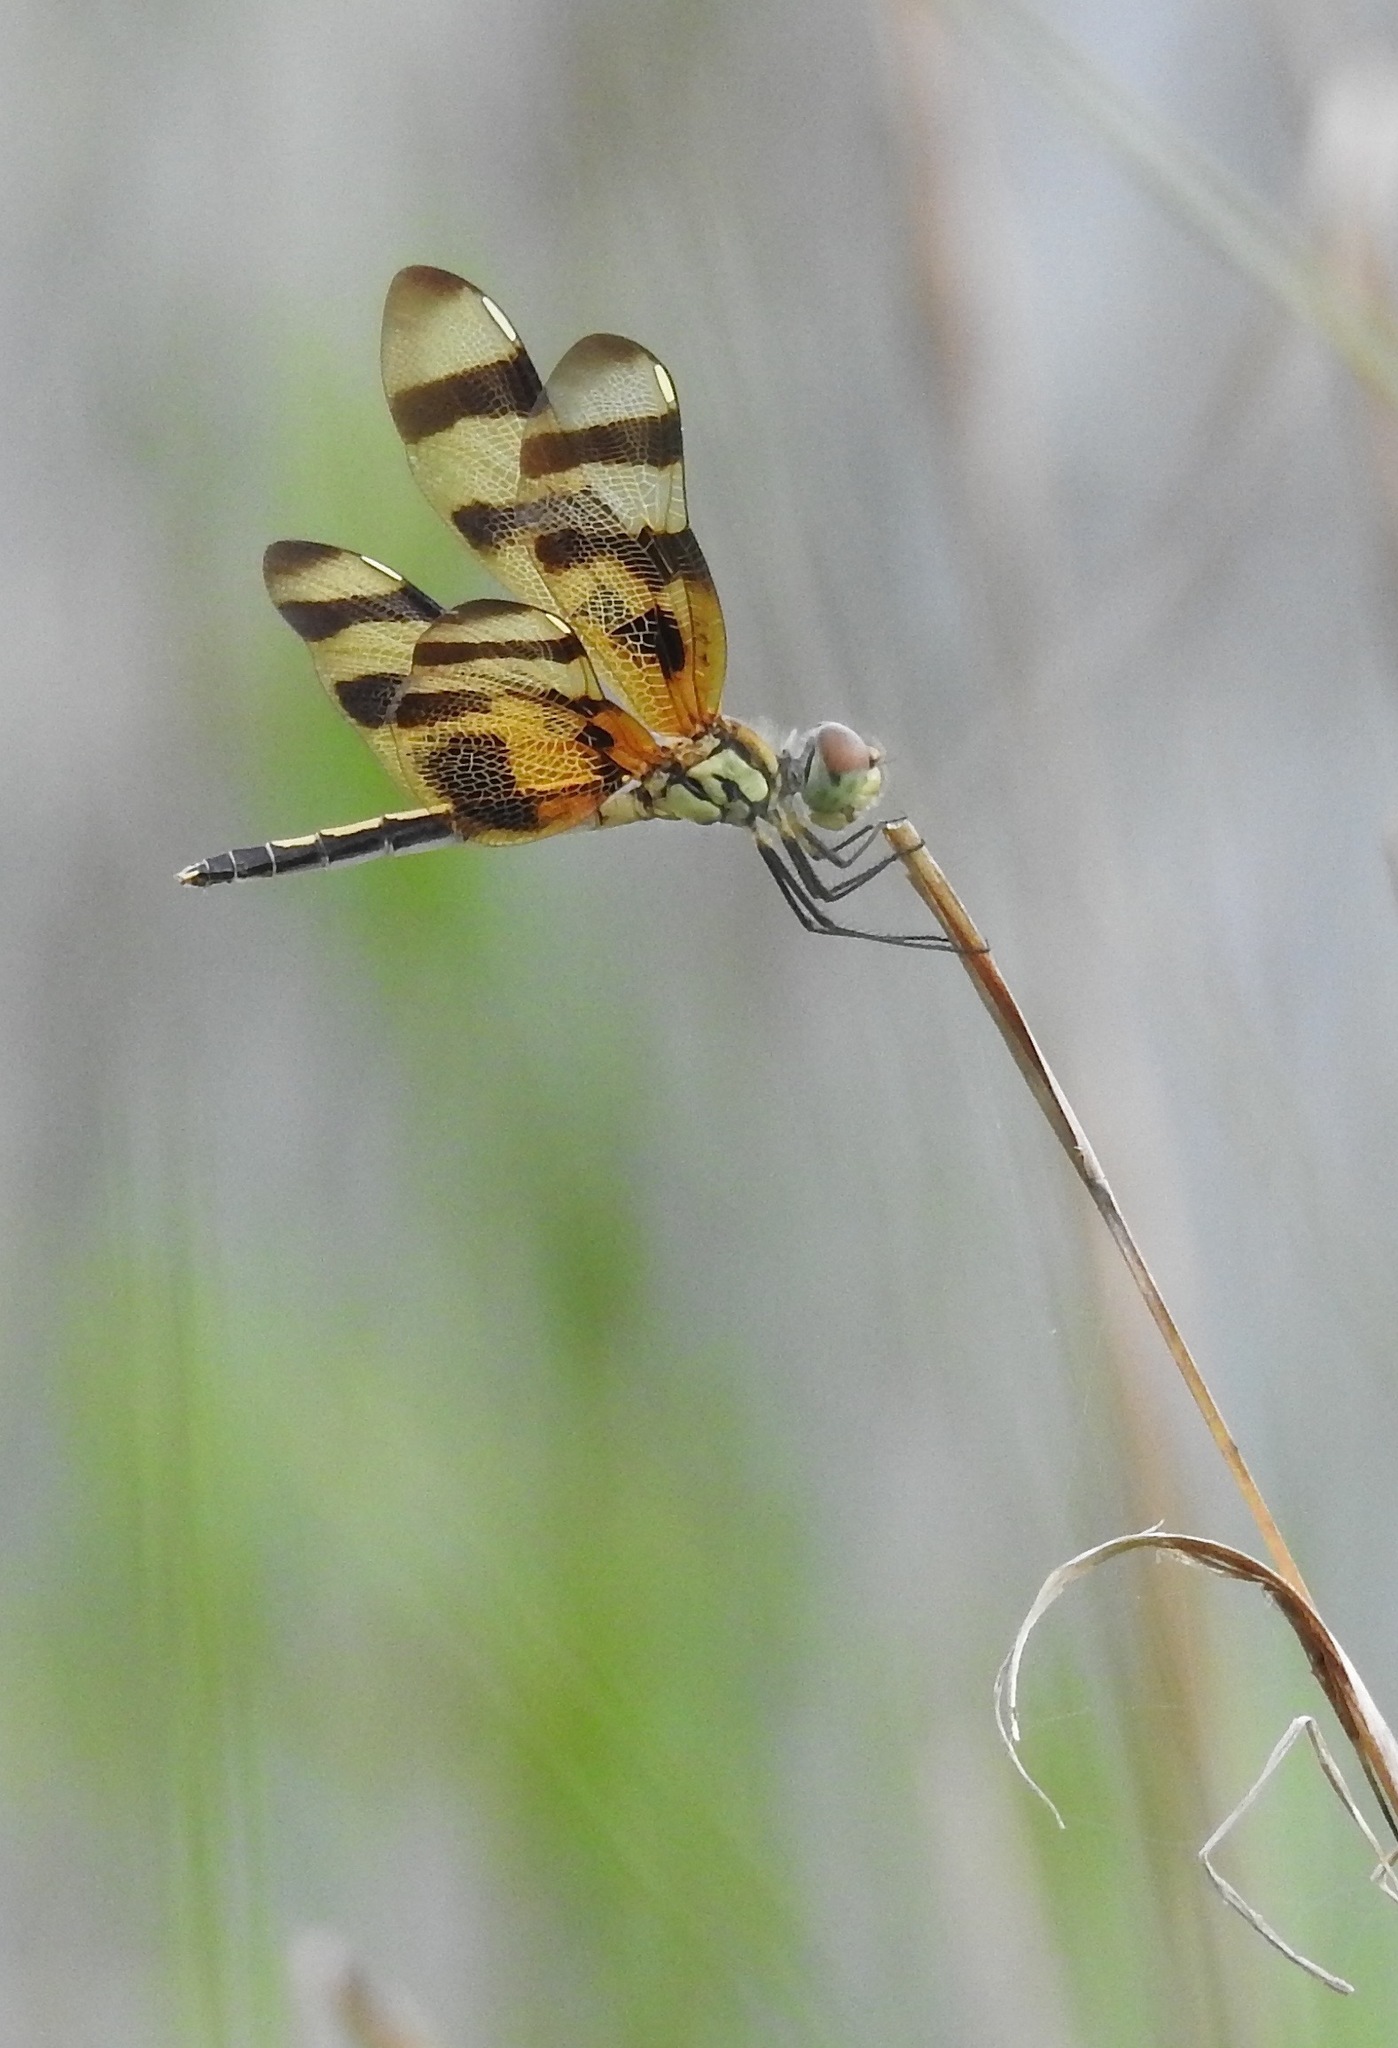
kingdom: Animalia
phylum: Arthropoda
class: Insecta
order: Odonata
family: Libellulidae
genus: Celithemis
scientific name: Celithemis eponina
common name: Halloween pennant
